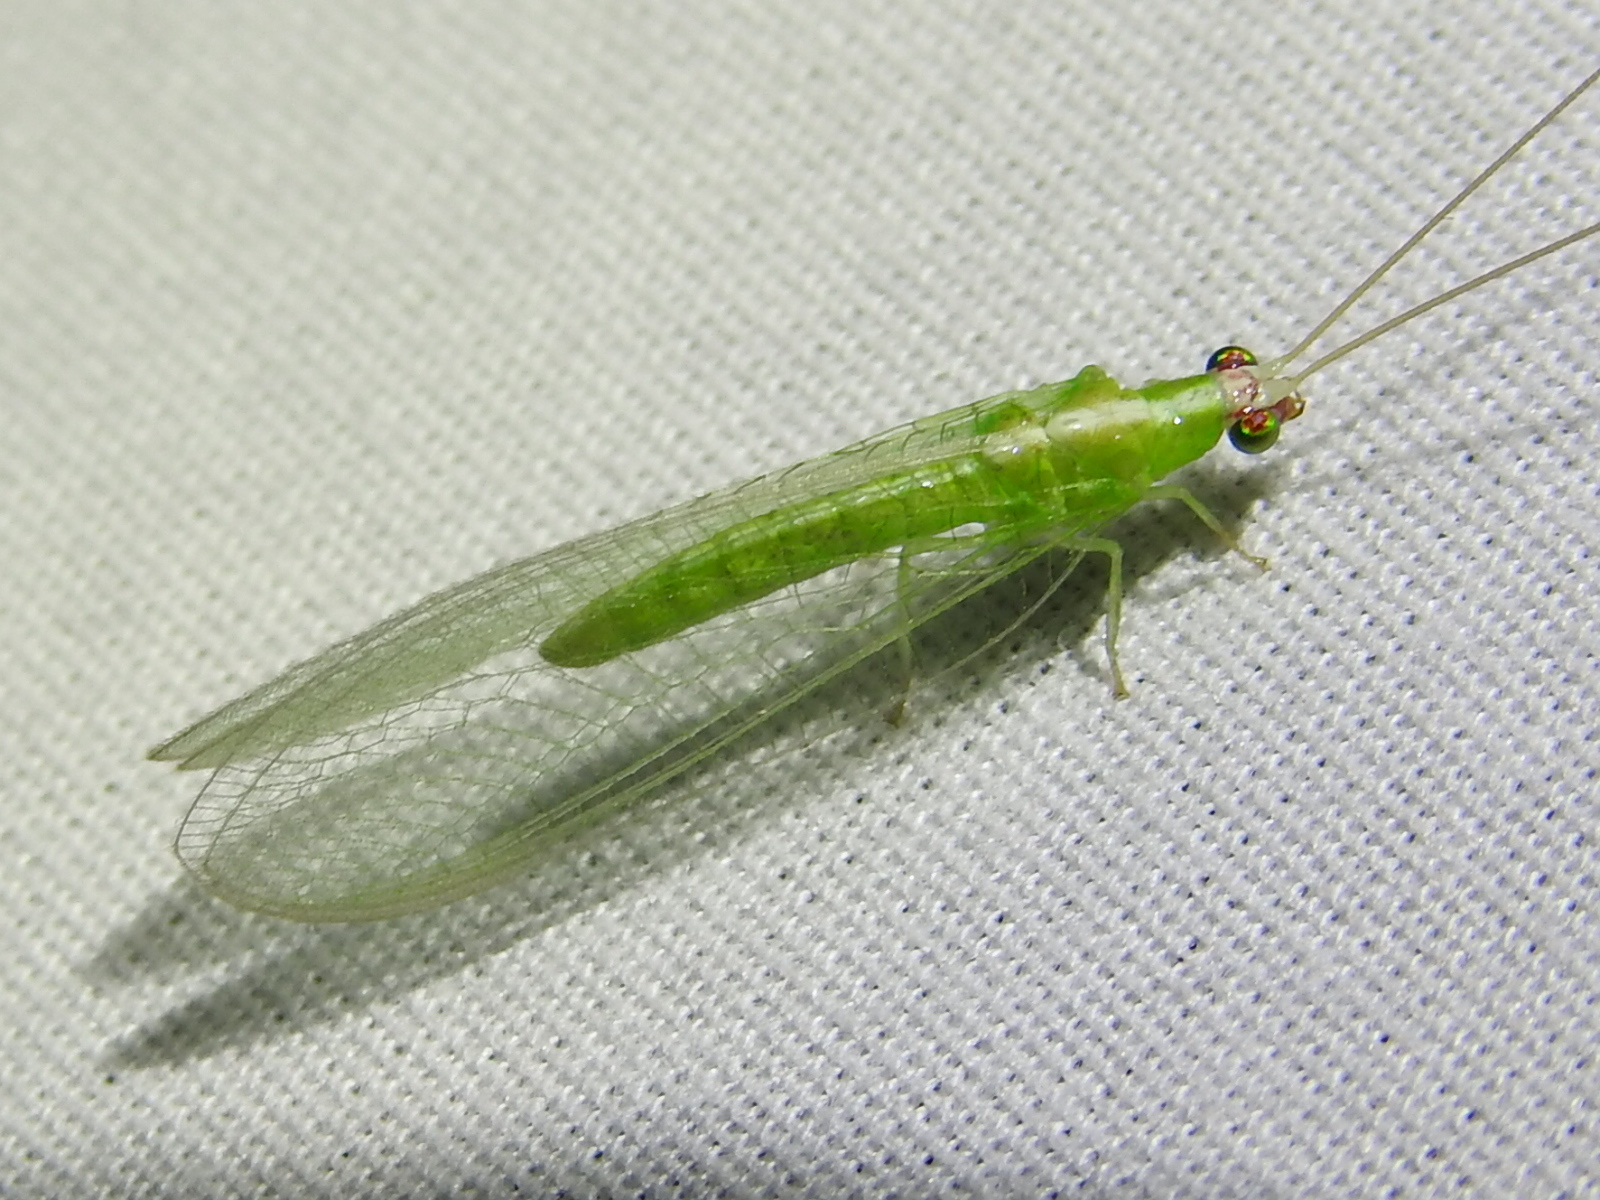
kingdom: Animalia
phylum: Arthropoda
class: Insecta
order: Neuroptera
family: Chrysopidae
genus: Chrysopodes
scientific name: Chrysopodes collaris
